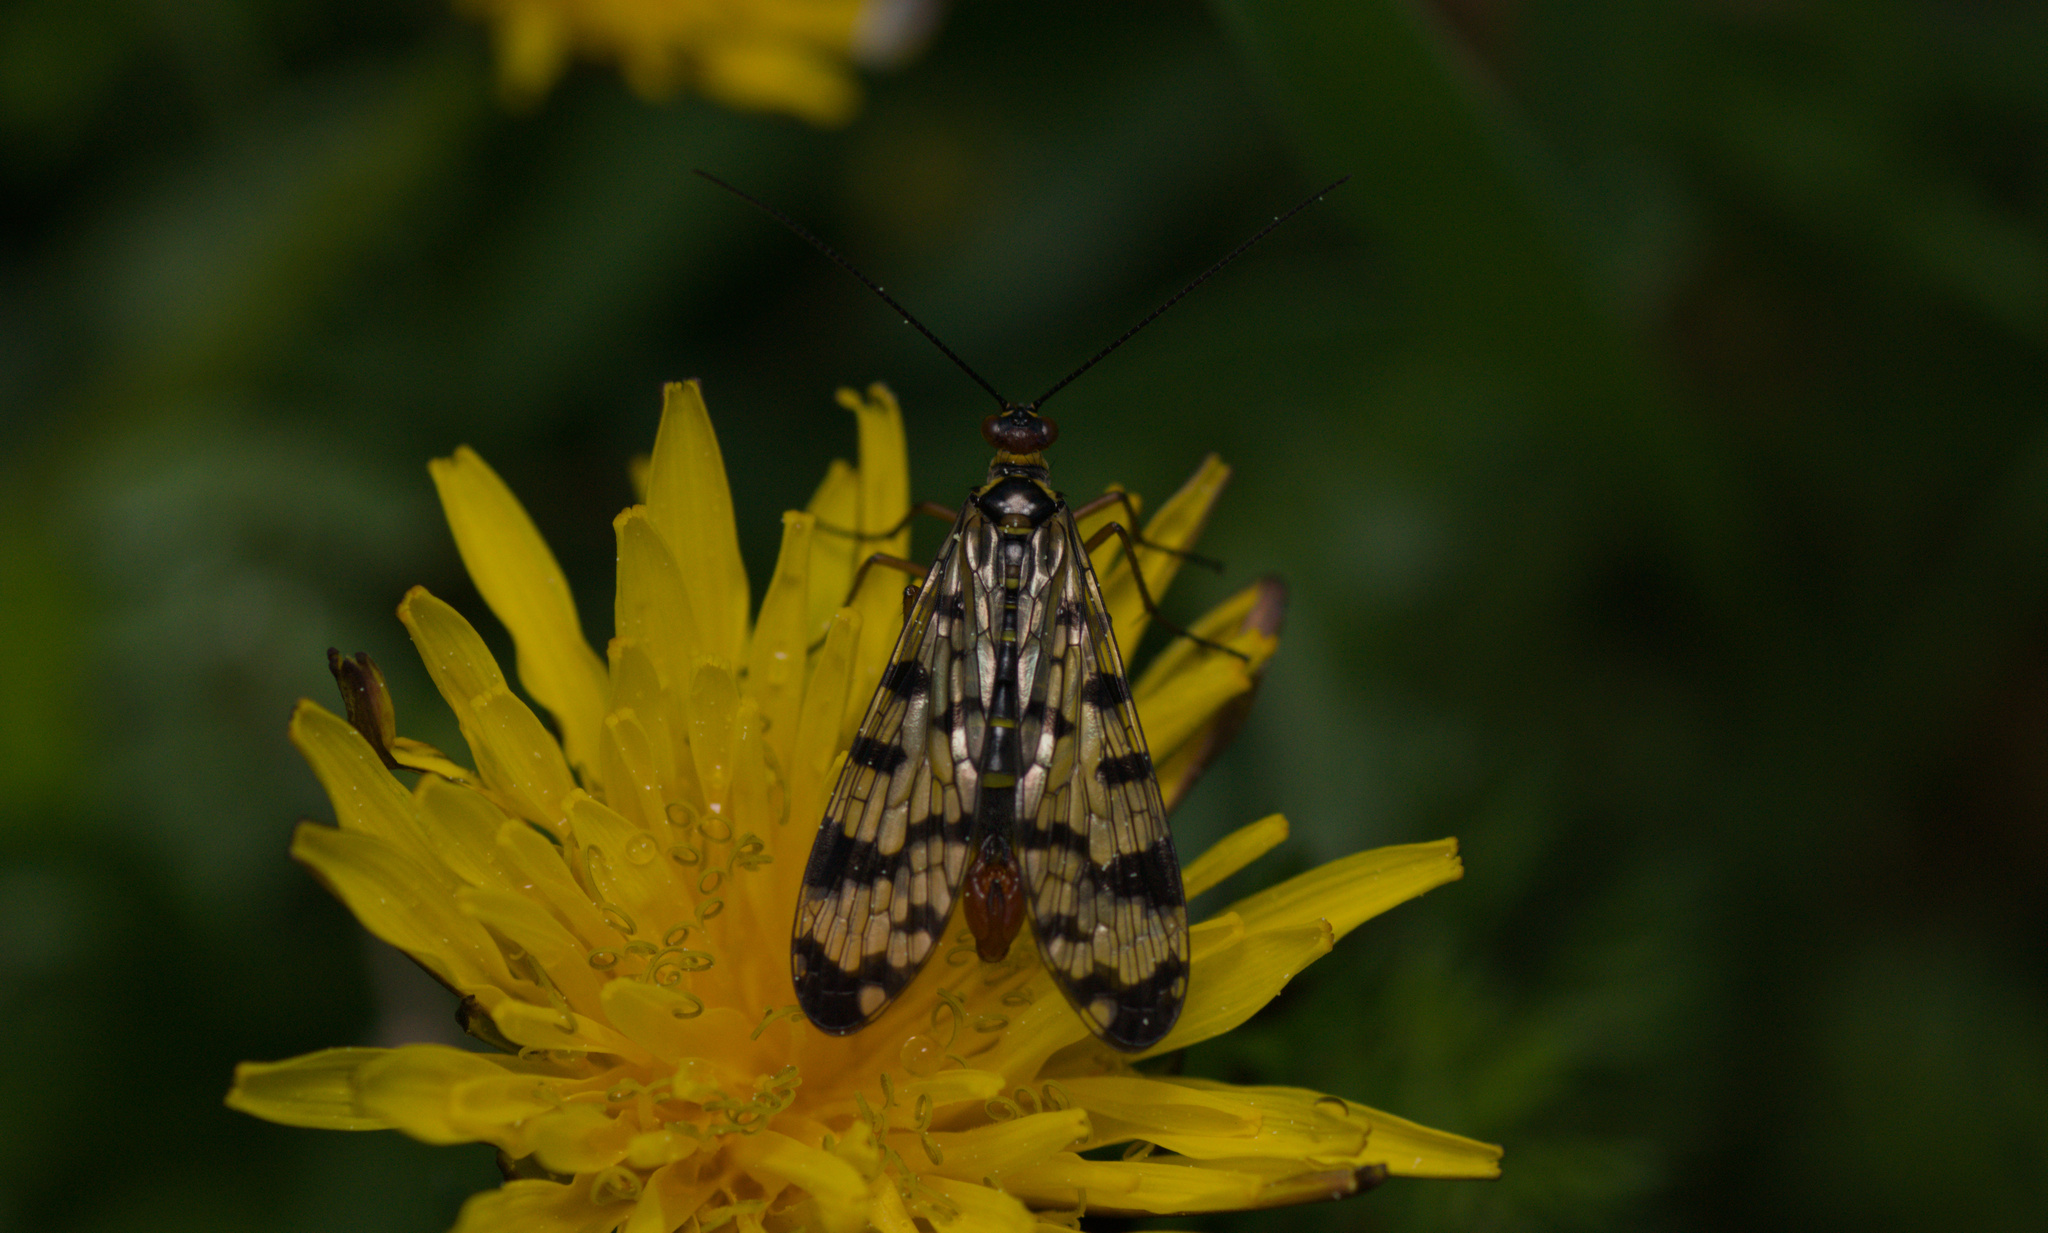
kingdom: Animalia
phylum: Arthropoda
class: Insecta
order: Mecoptera
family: Panorpidae
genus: Panorpa
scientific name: Panorpa meridionalis
